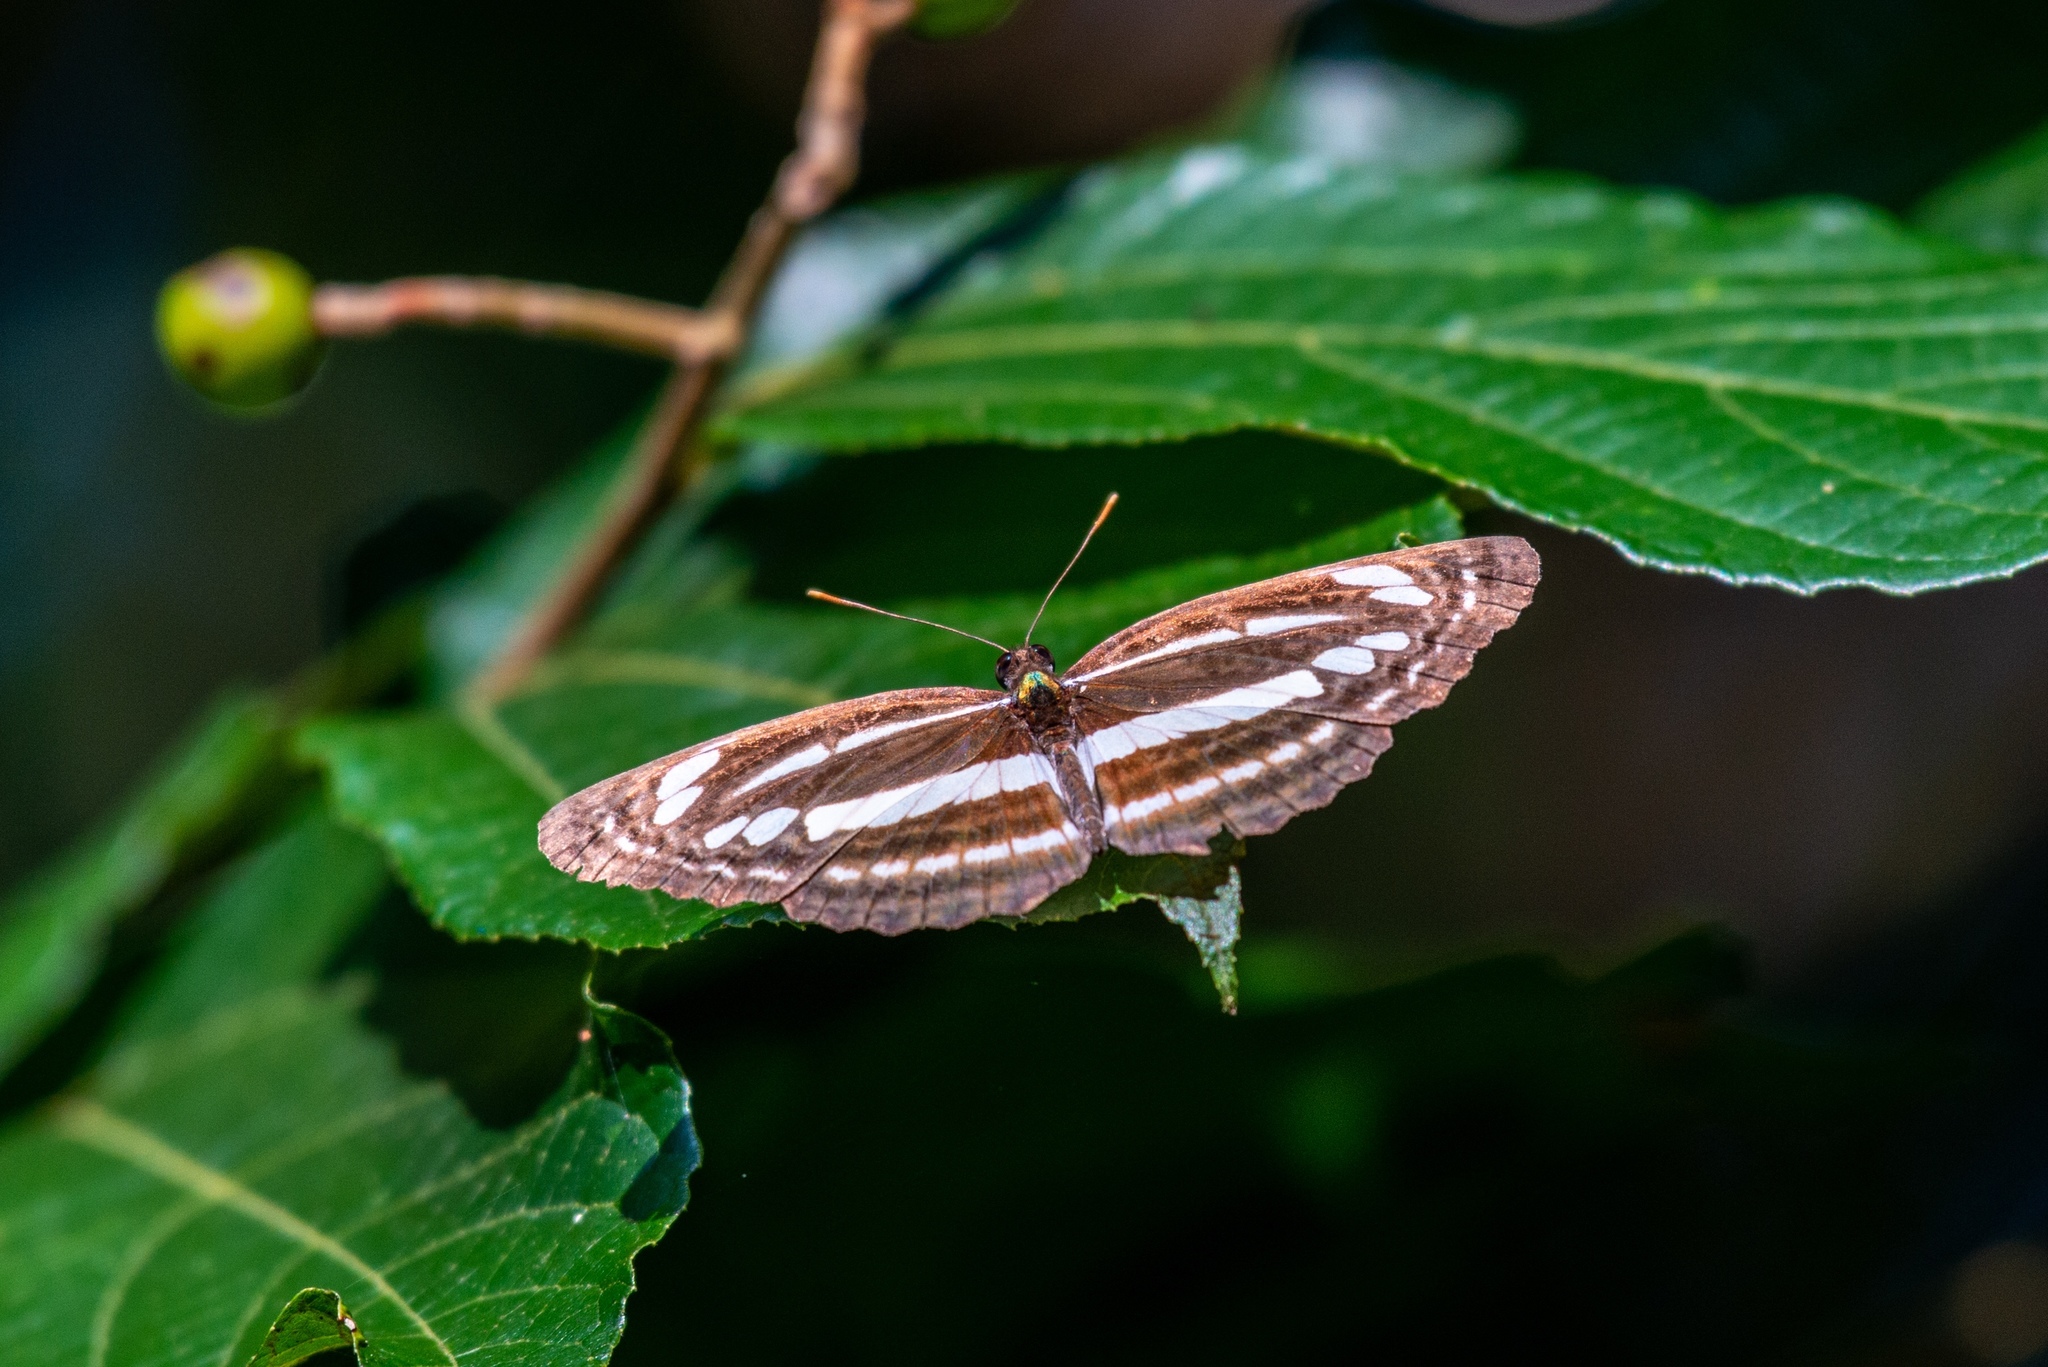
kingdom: Animalia
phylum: Arthropoda
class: Insecta
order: Lepidoptera
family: Nymphalidae
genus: Neptis
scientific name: Neptis clinia
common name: Southern sullied sailer
